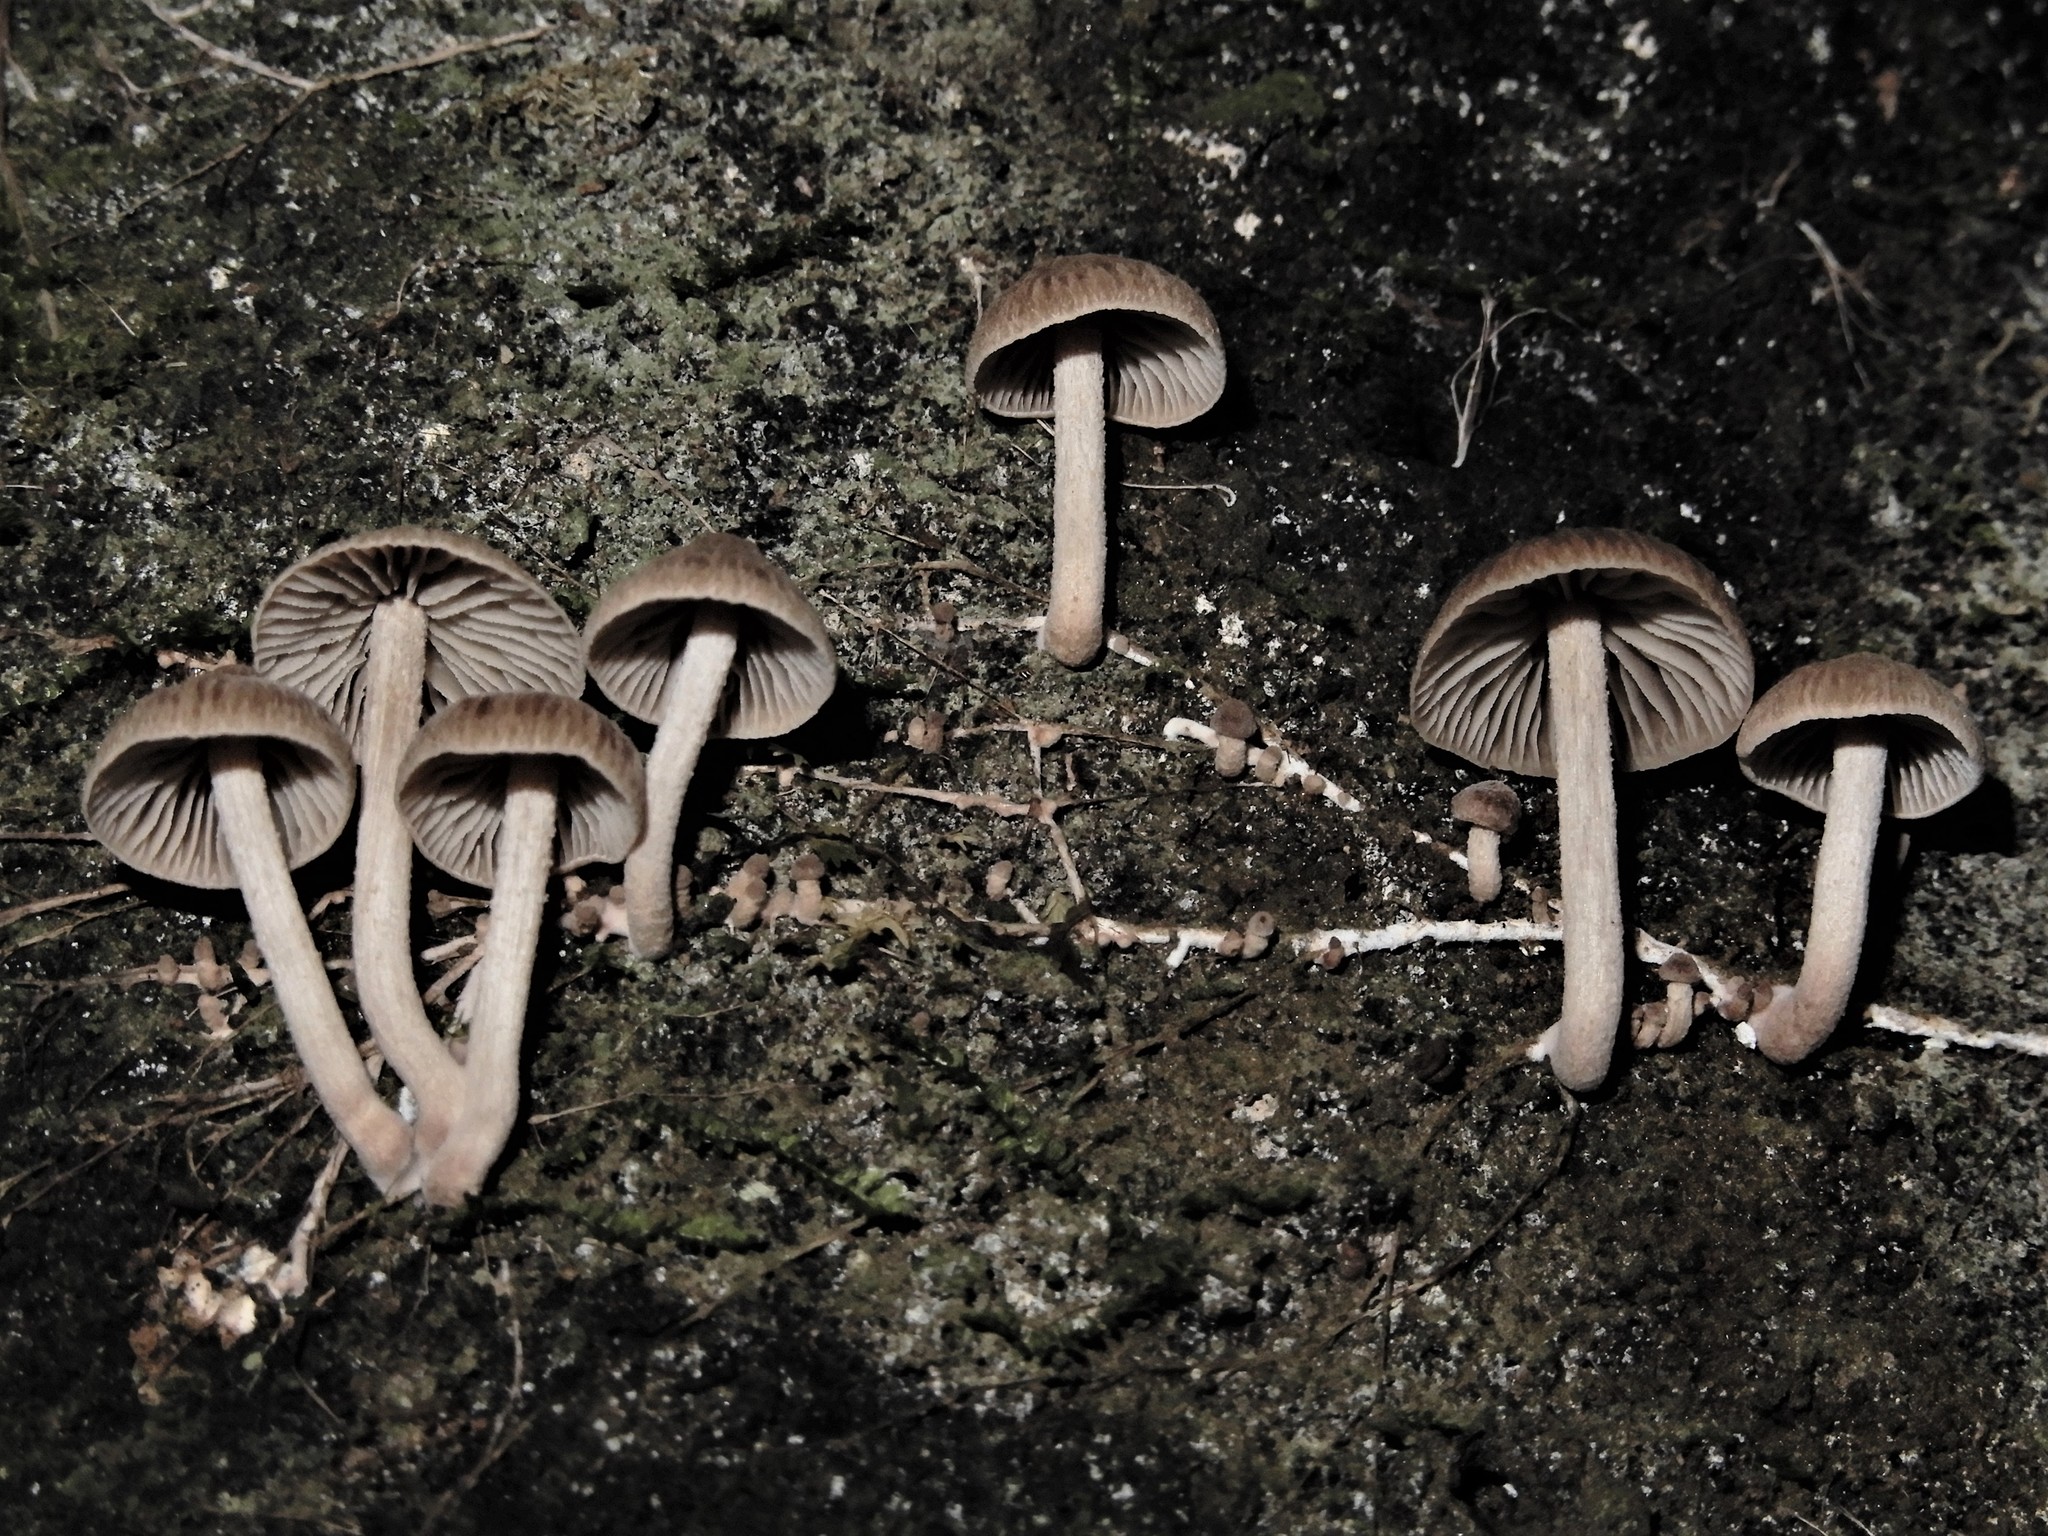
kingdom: Fungi
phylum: Basidiomycota
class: Agaricomycetes
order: Agaricales
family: Omphalotaceae
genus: Collybiopsis
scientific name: Collybiopsis subpruinosa
